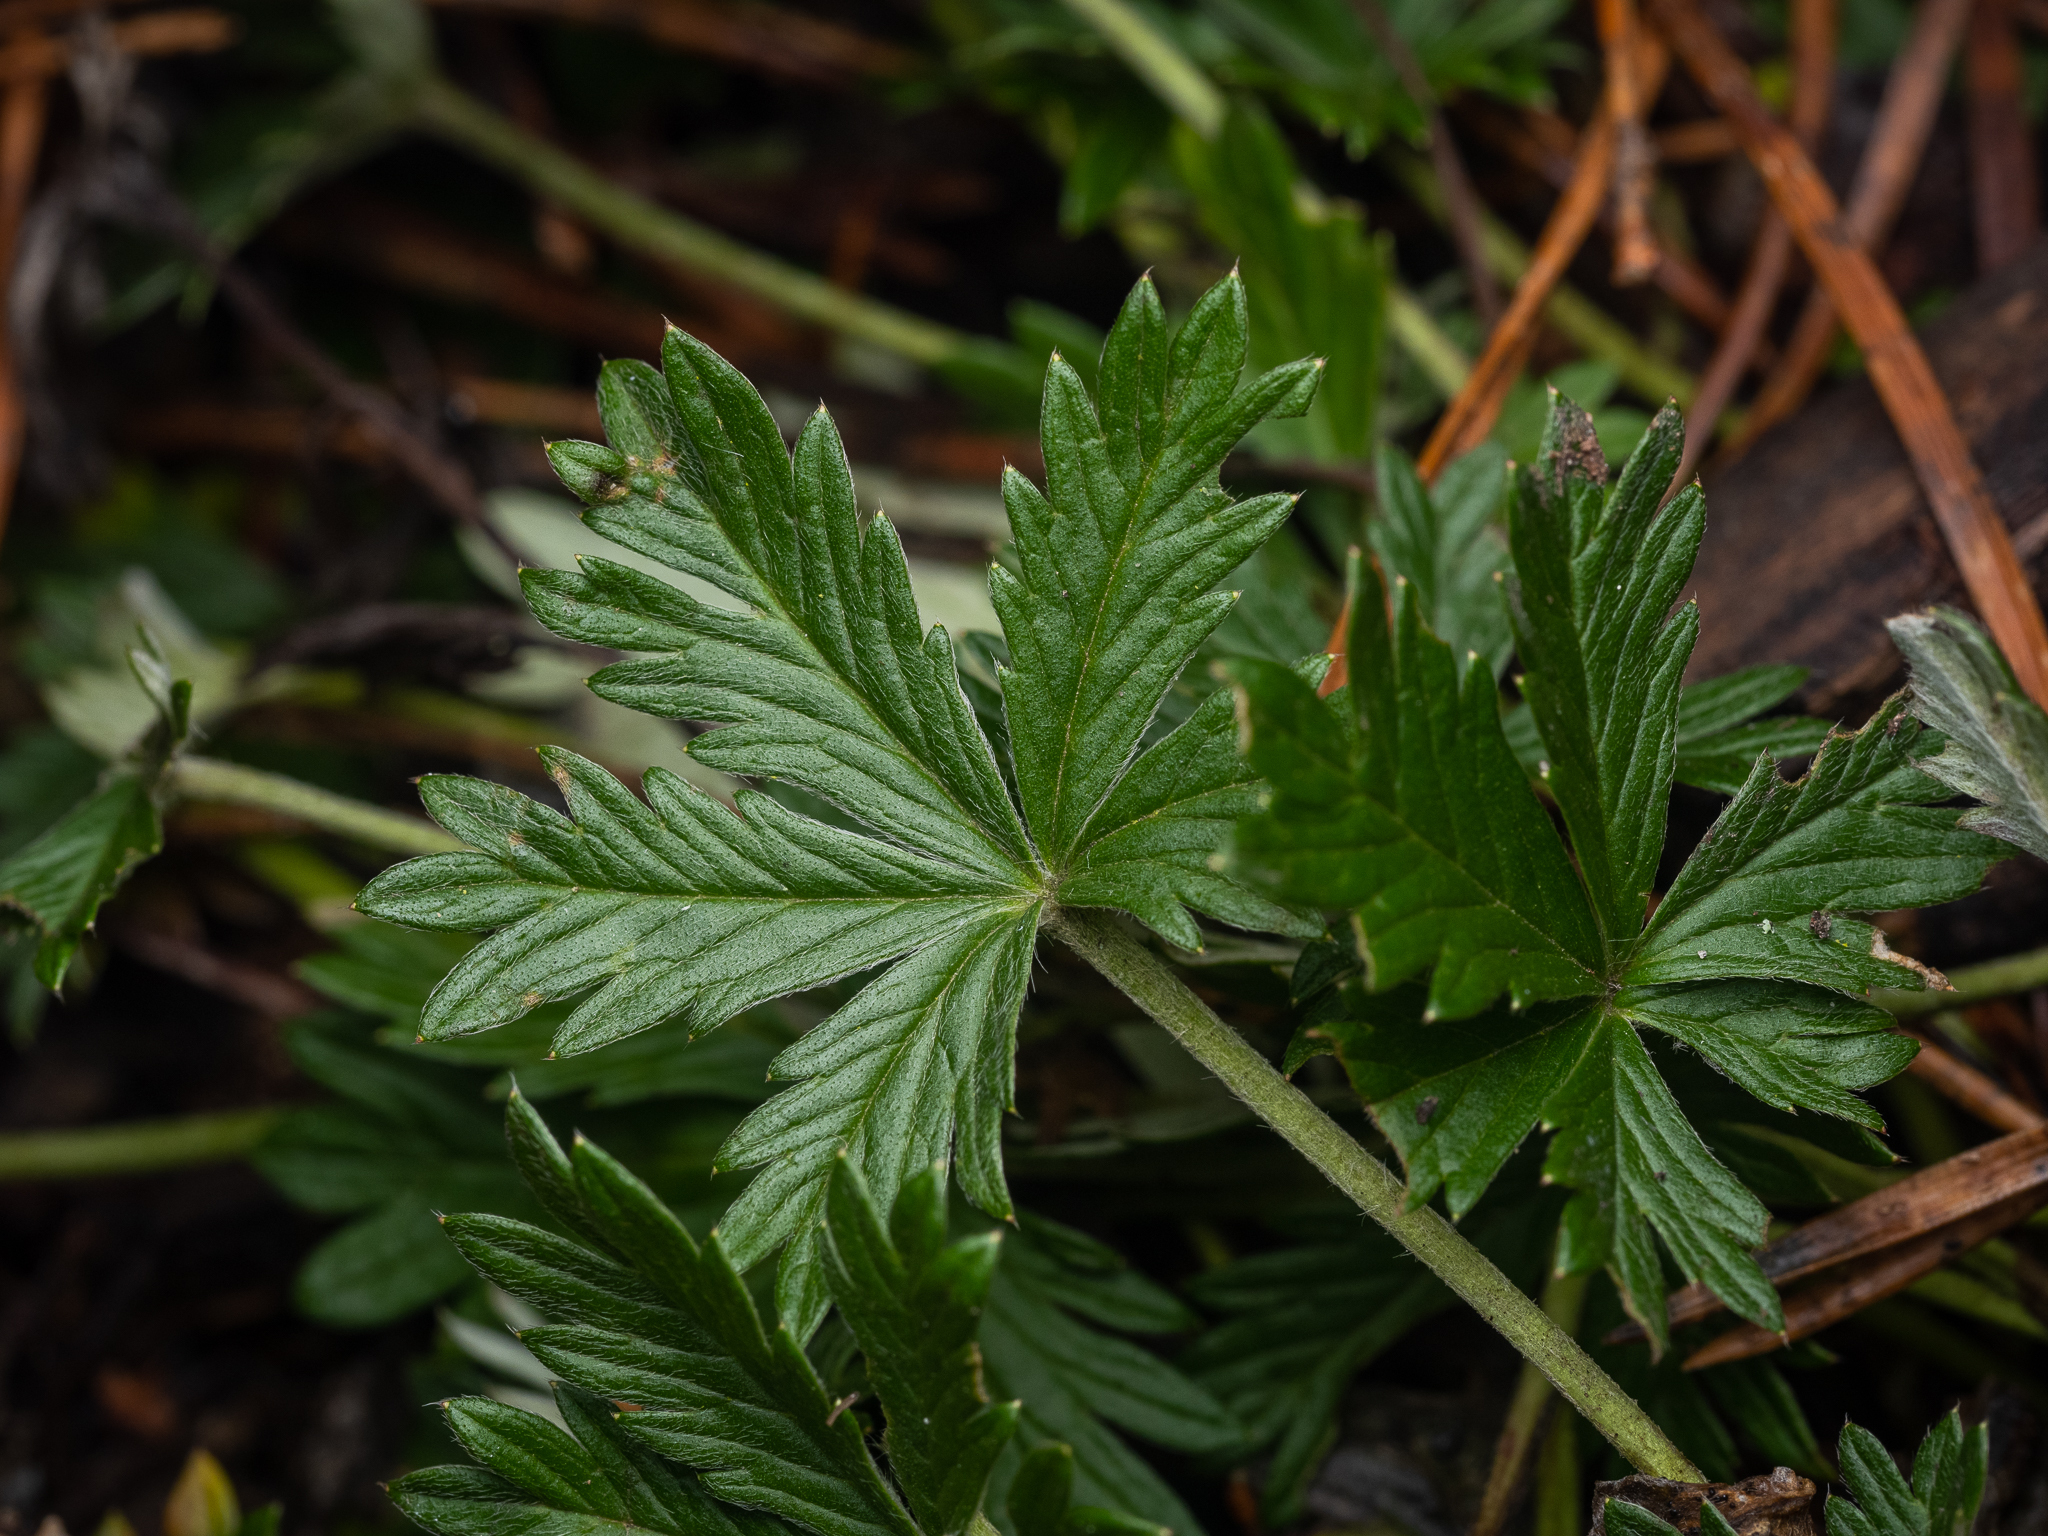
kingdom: Plantae
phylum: Tracheophyta
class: Magnoliopsida
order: Rosales
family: Rosaceae
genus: Potentilla
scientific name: Potentilla argentea
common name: Hoary cinquefoil
